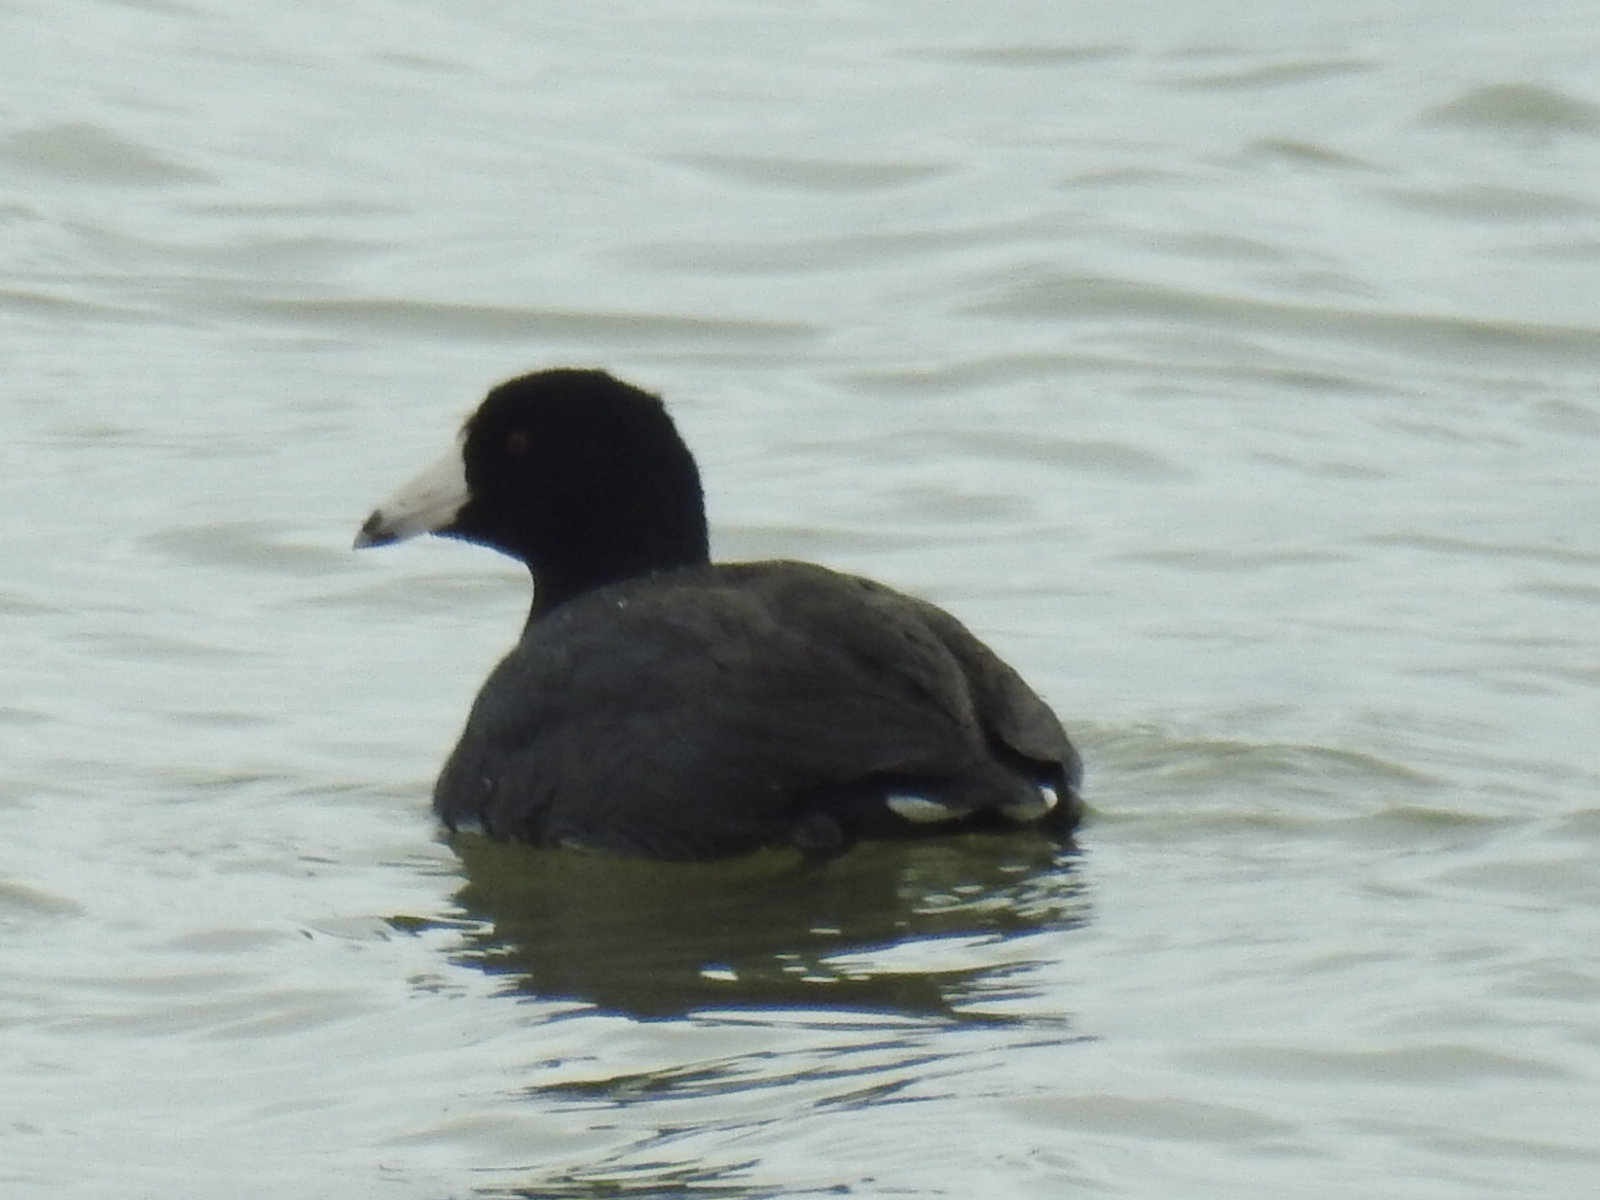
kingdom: Animalia
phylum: Chordata
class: Aves
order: Gruiformes
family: Rallidae
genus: Fulica
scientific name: Fulica americana
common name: American coot
